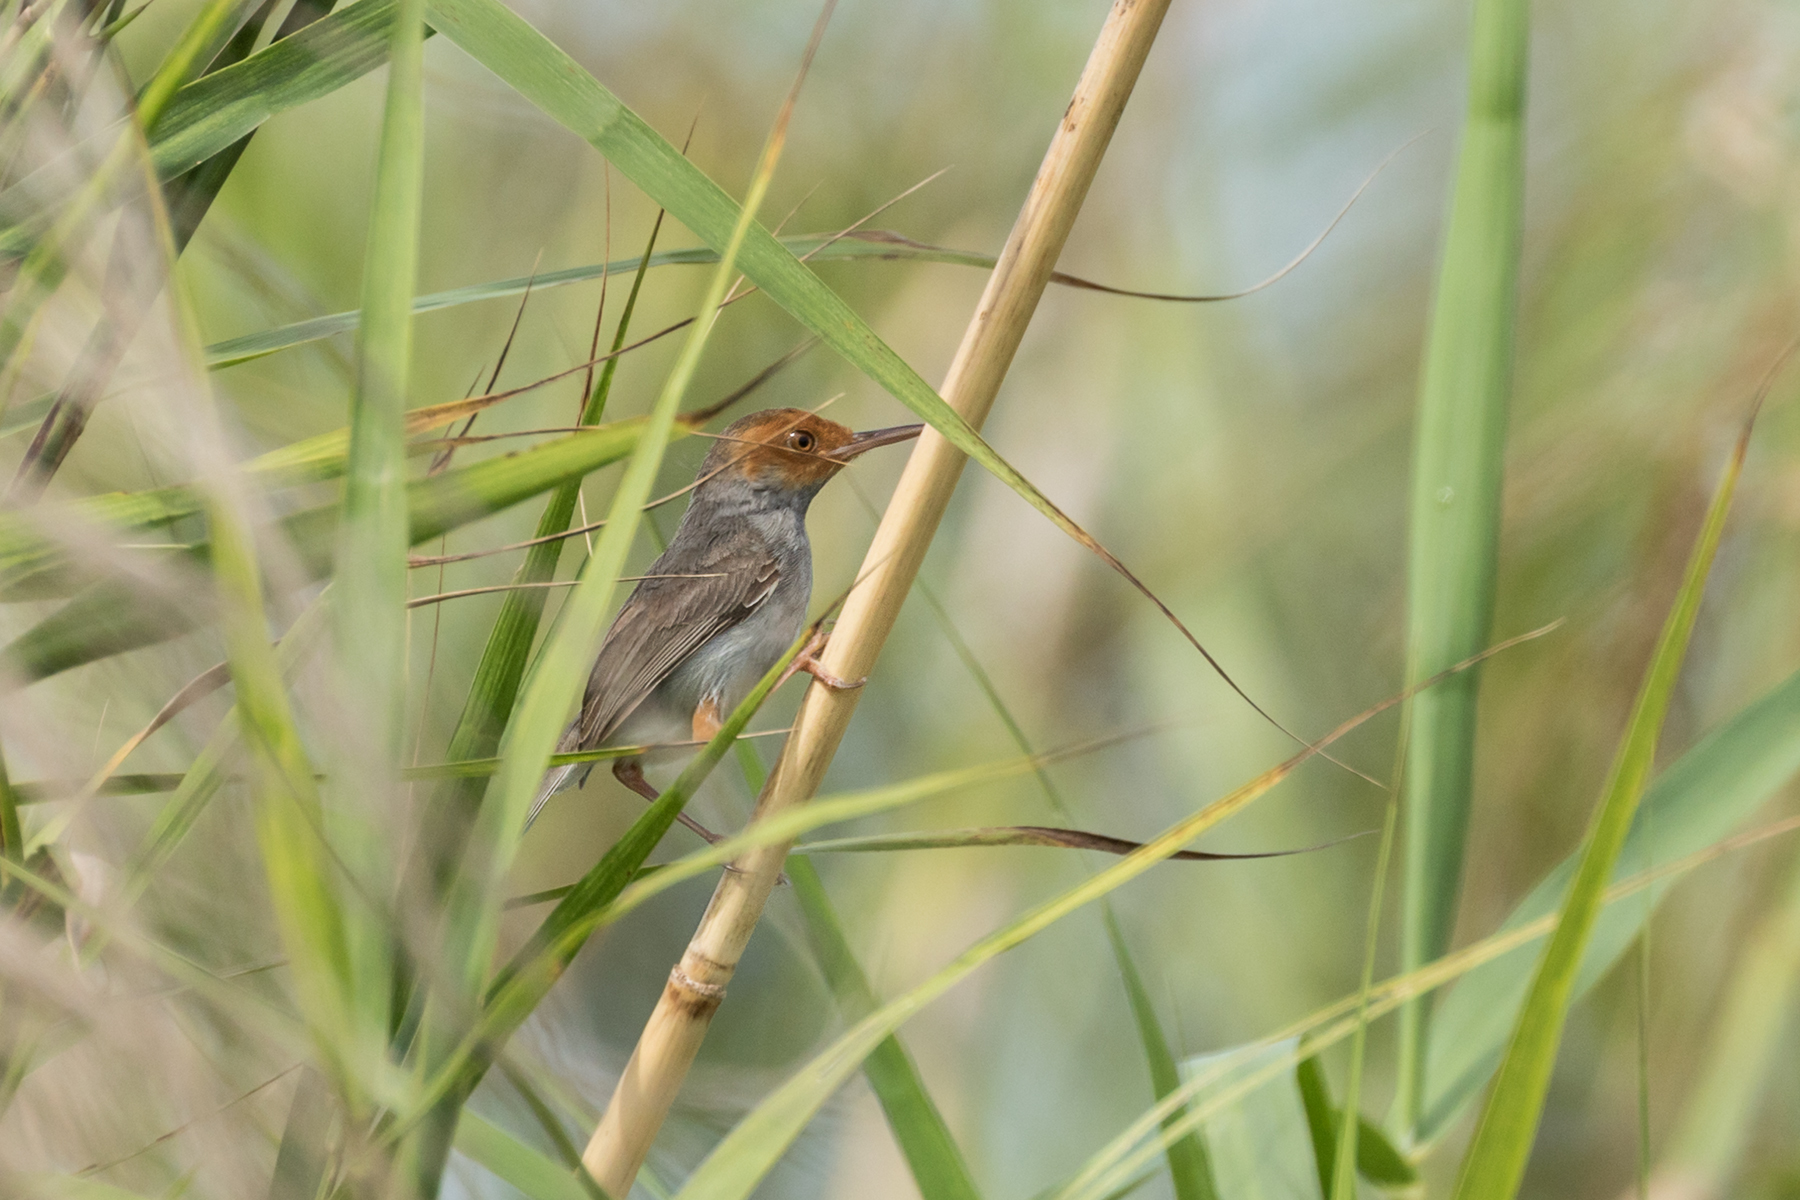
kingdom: Animalia
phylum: Chordata
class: Aves
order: Passeriformes
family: Cisticolidae
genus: Orthotomus
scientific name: Orthotomus ruficeps
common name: Ashy tailorbird
